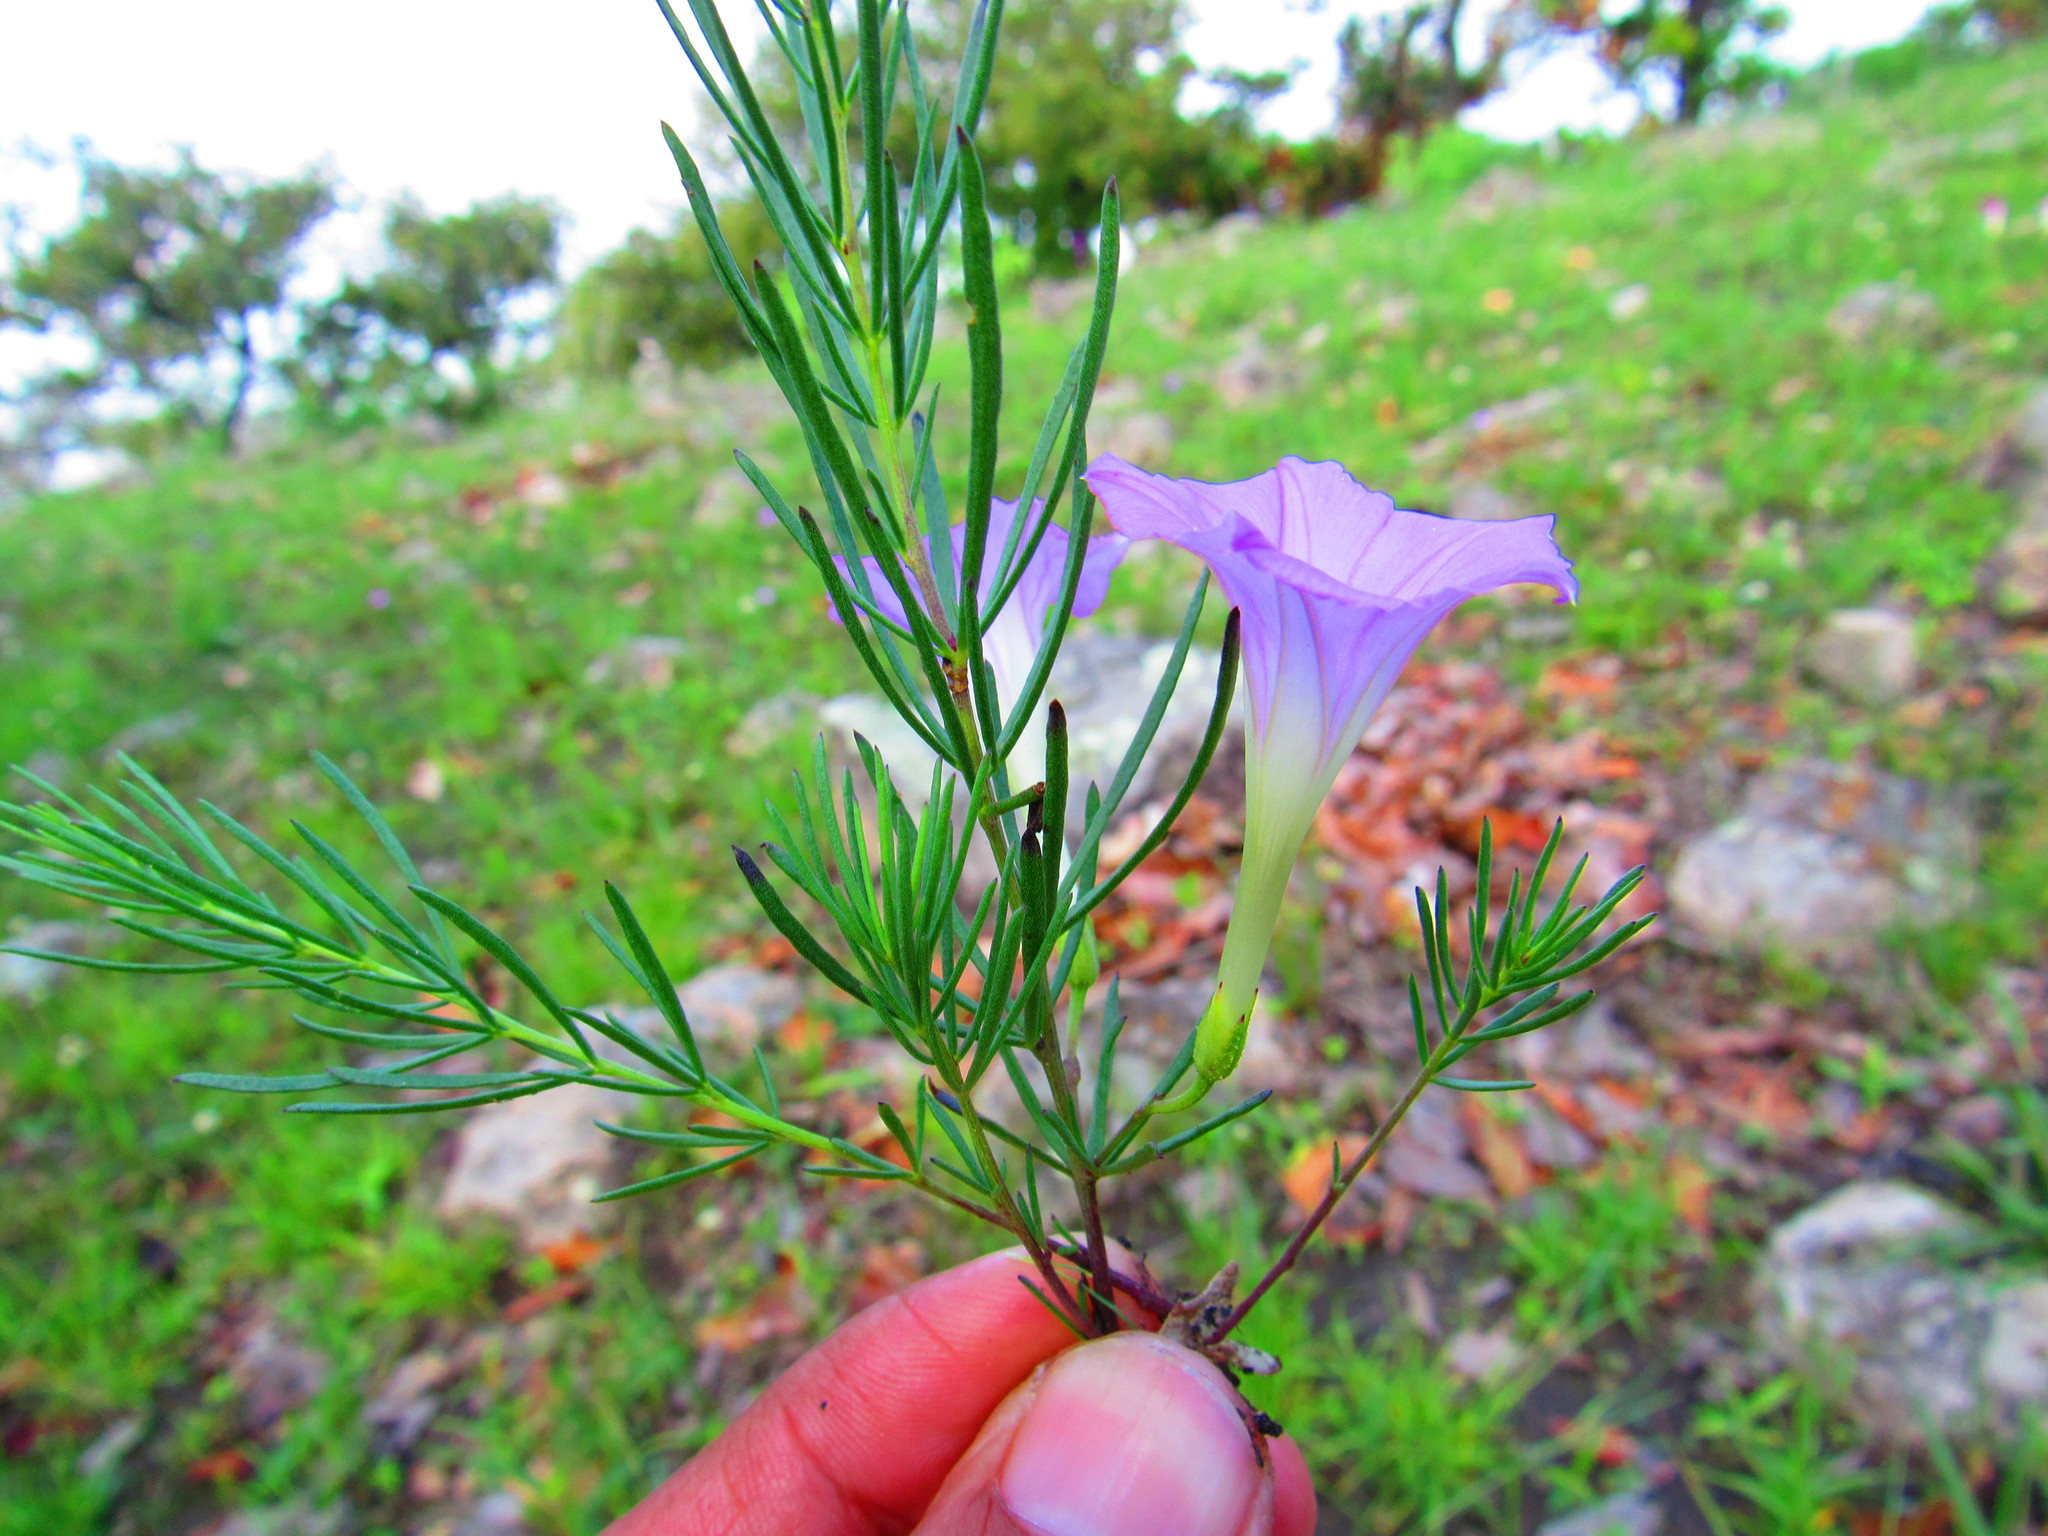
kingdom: Plantae
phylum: Tracheophyta
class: Magnoliopsida
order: Solanales
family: Convolvulaceae
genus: Ipomoea
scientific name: Ipomoea capillacea
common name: Purple morning-glory
